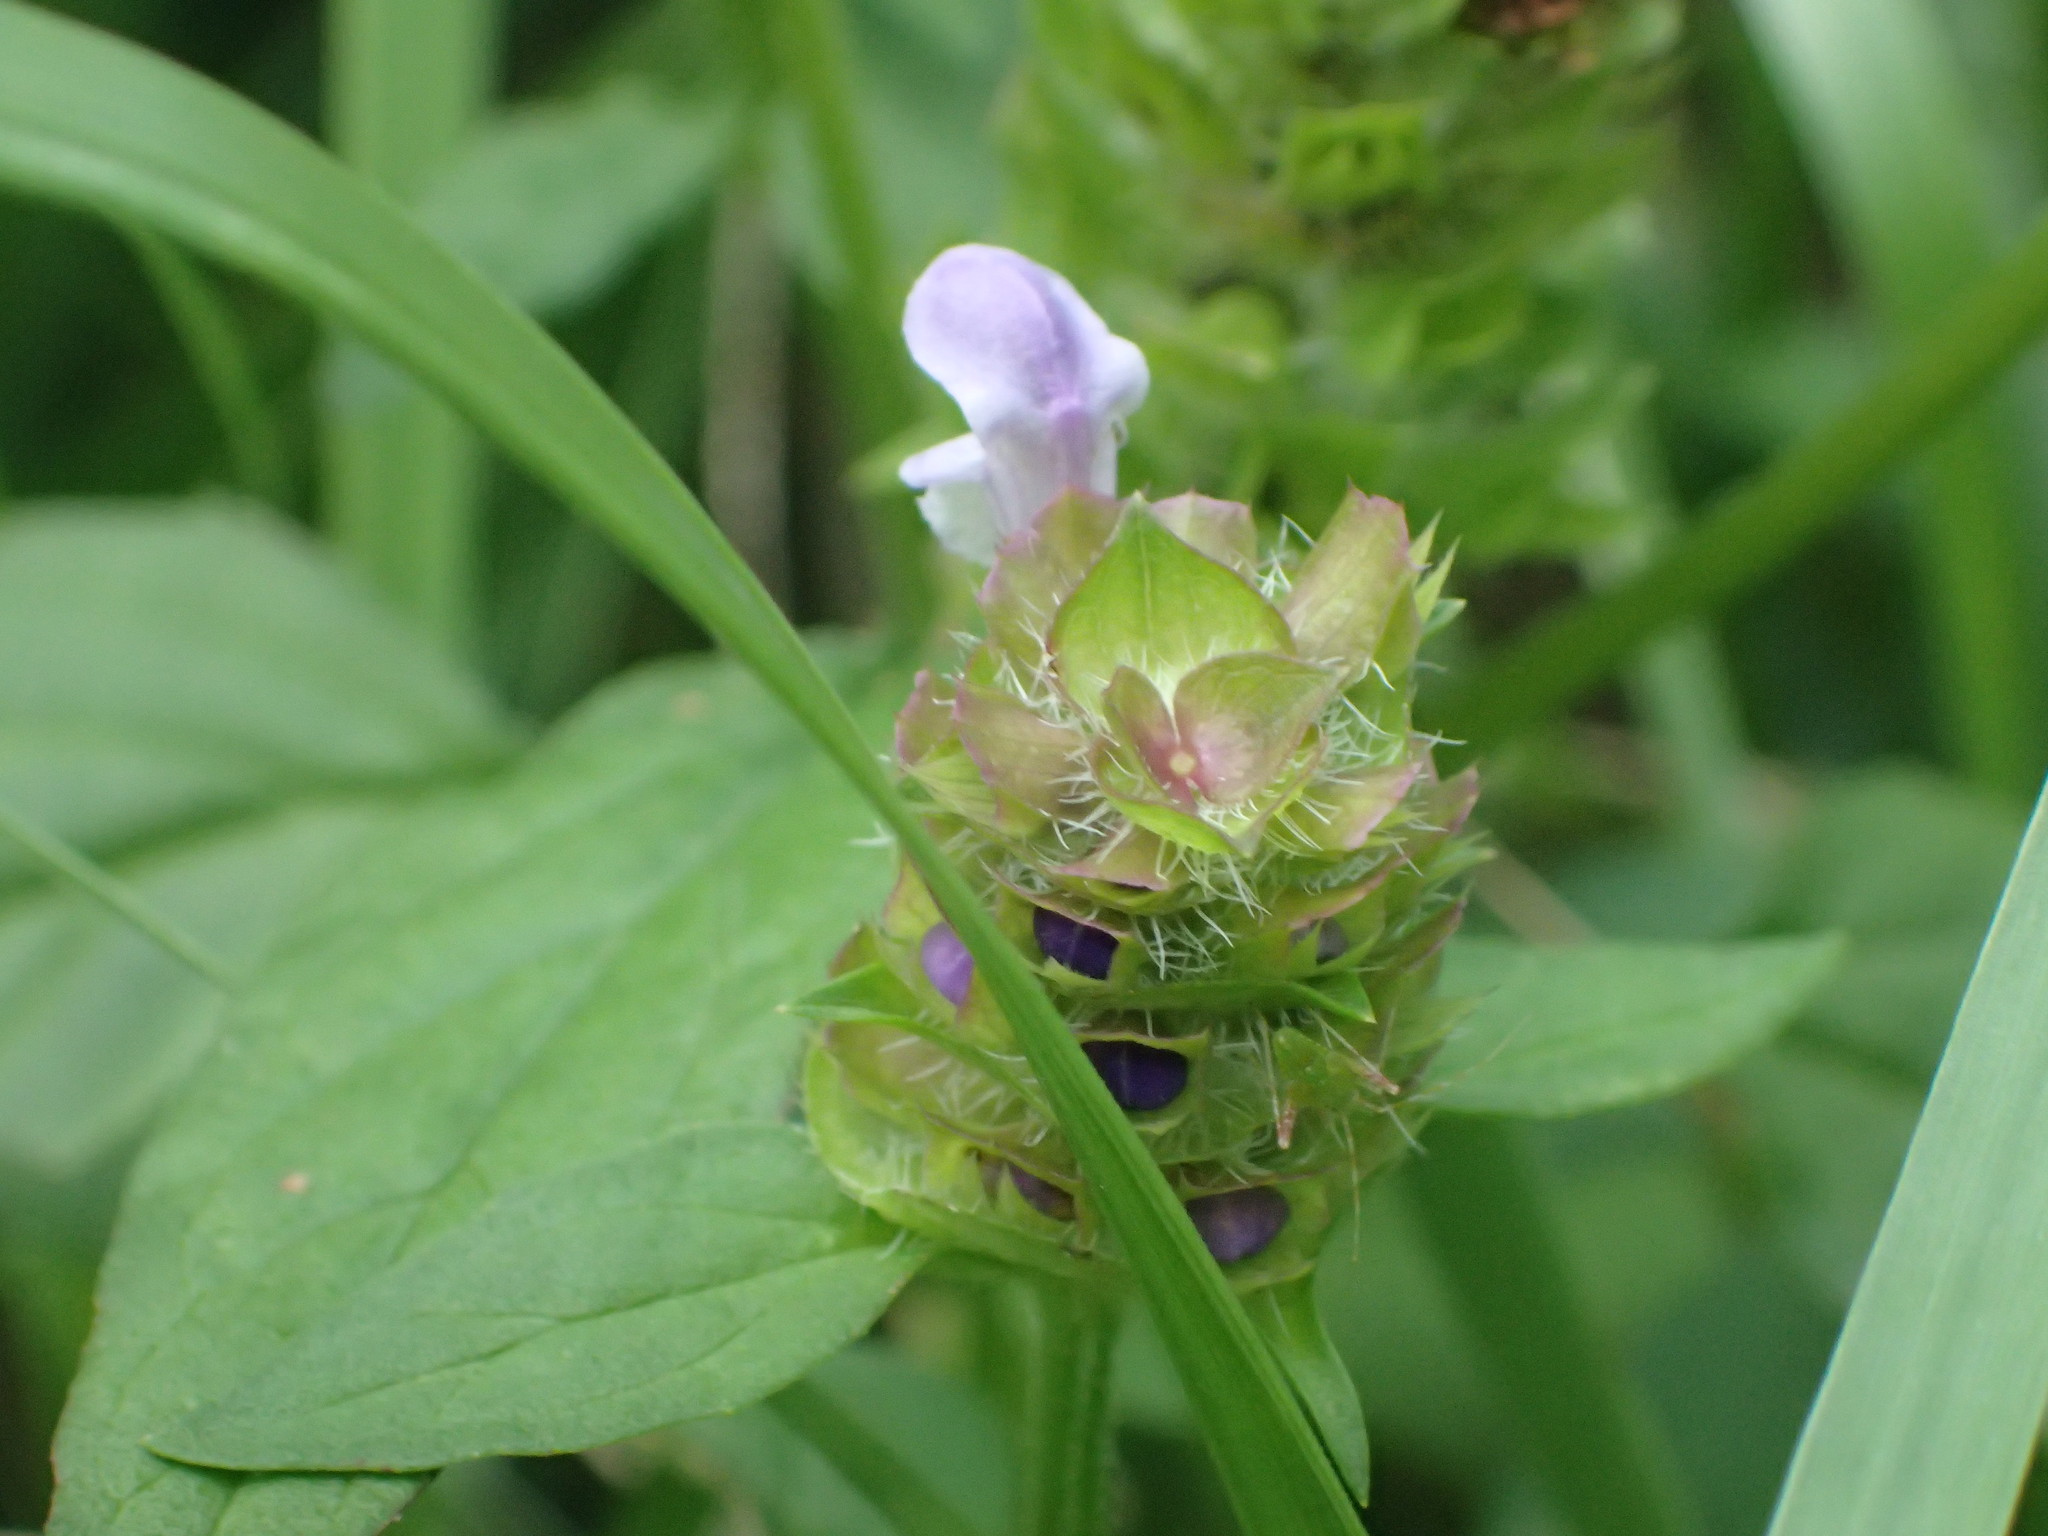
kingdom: Plantae
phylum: Tracheophyta
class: Magnoliopsida
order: Lamiales
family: Lamiaceae
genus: Prunella
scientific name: Prunella vulgaris
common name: Heal-all
